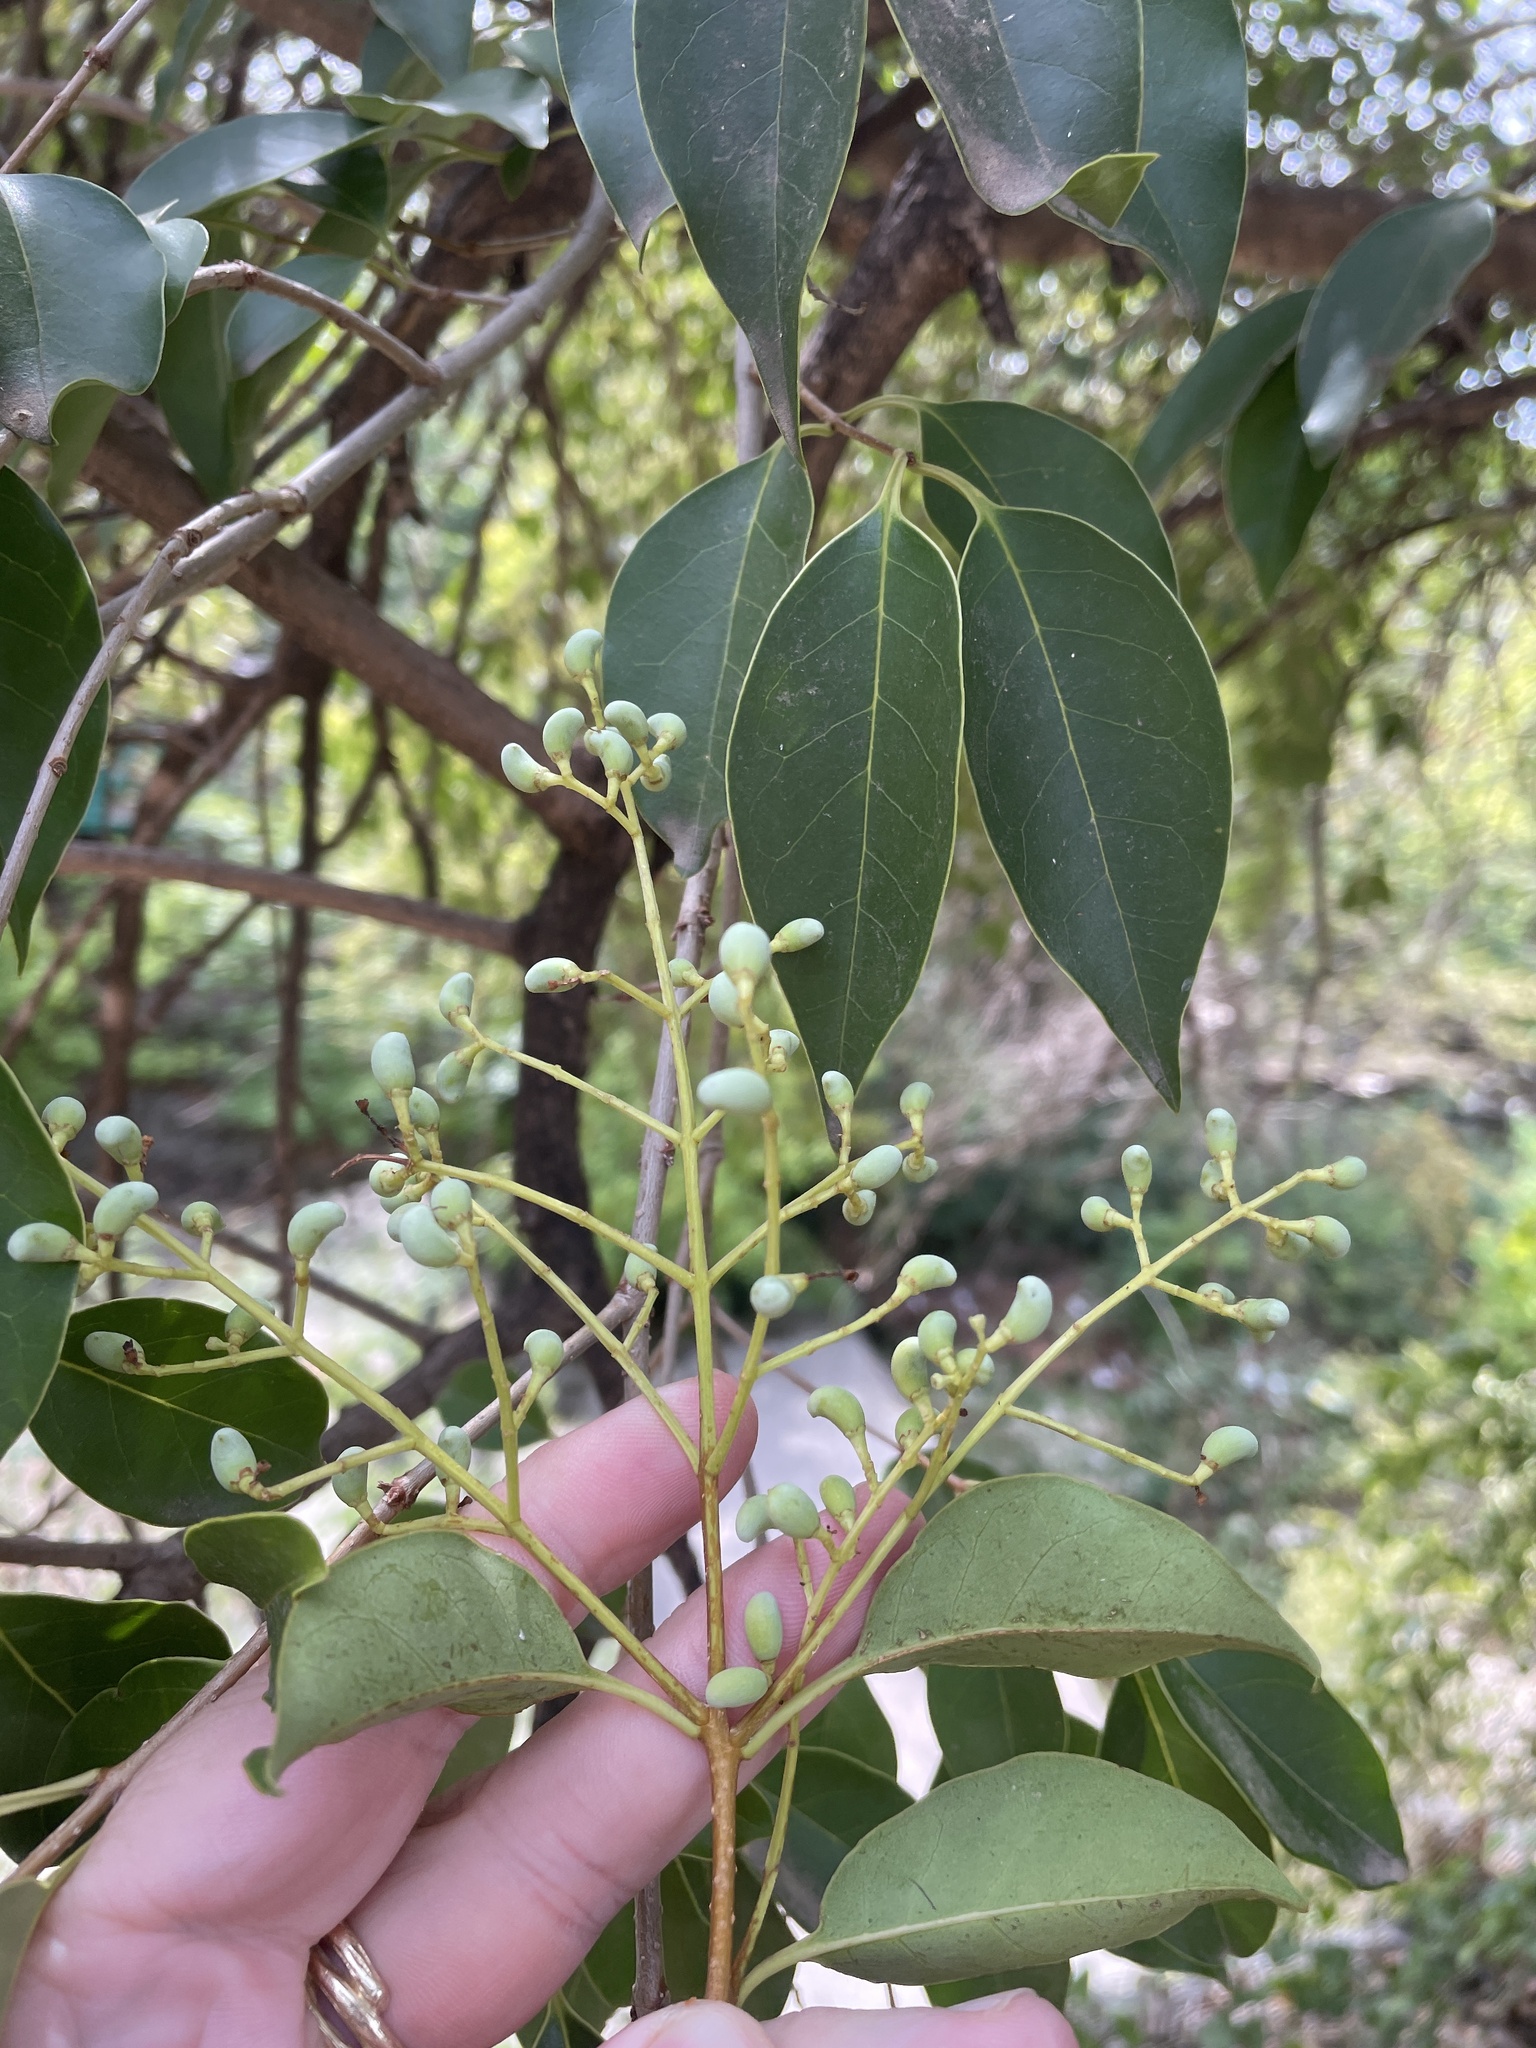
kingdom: Plantae
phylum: Tracheophyta
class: Magnoliopsida
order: Lamiales
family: Oleaceae
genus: Ligustrum
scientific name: Ligustrum lucidum
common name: Glossy privet
